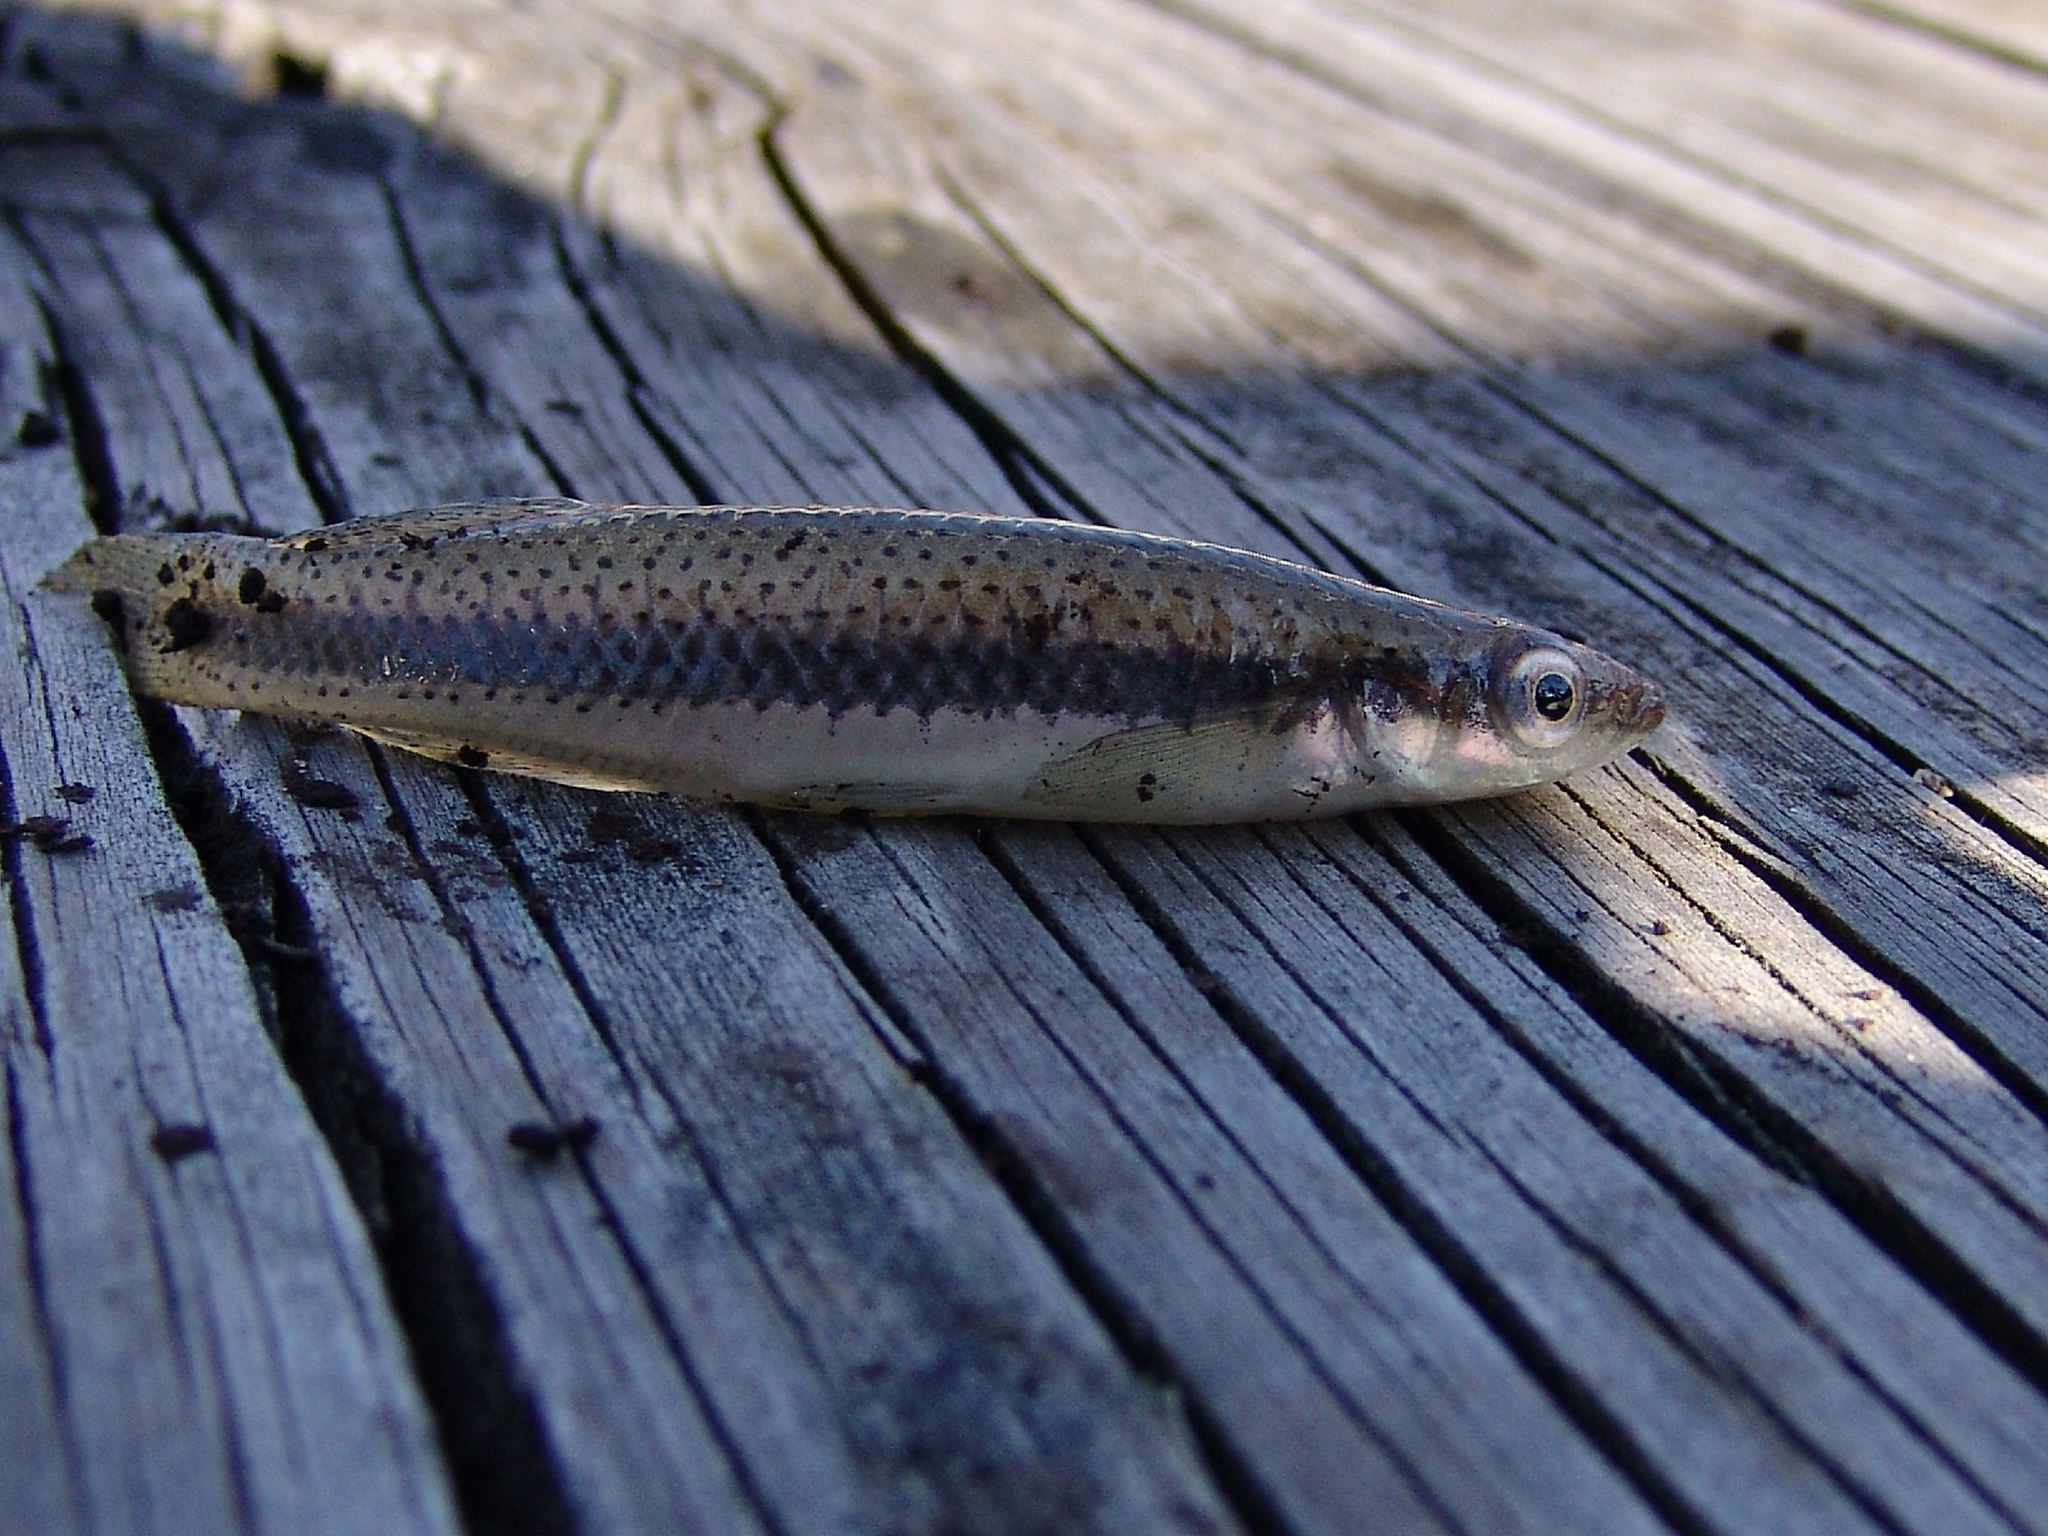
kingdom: Animalia
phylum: Chordata
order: Cyprinodontiformes
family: Fundulidae
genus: Fundulus
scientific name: Fundulus olivaceus
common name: Blackspotted topminnow
